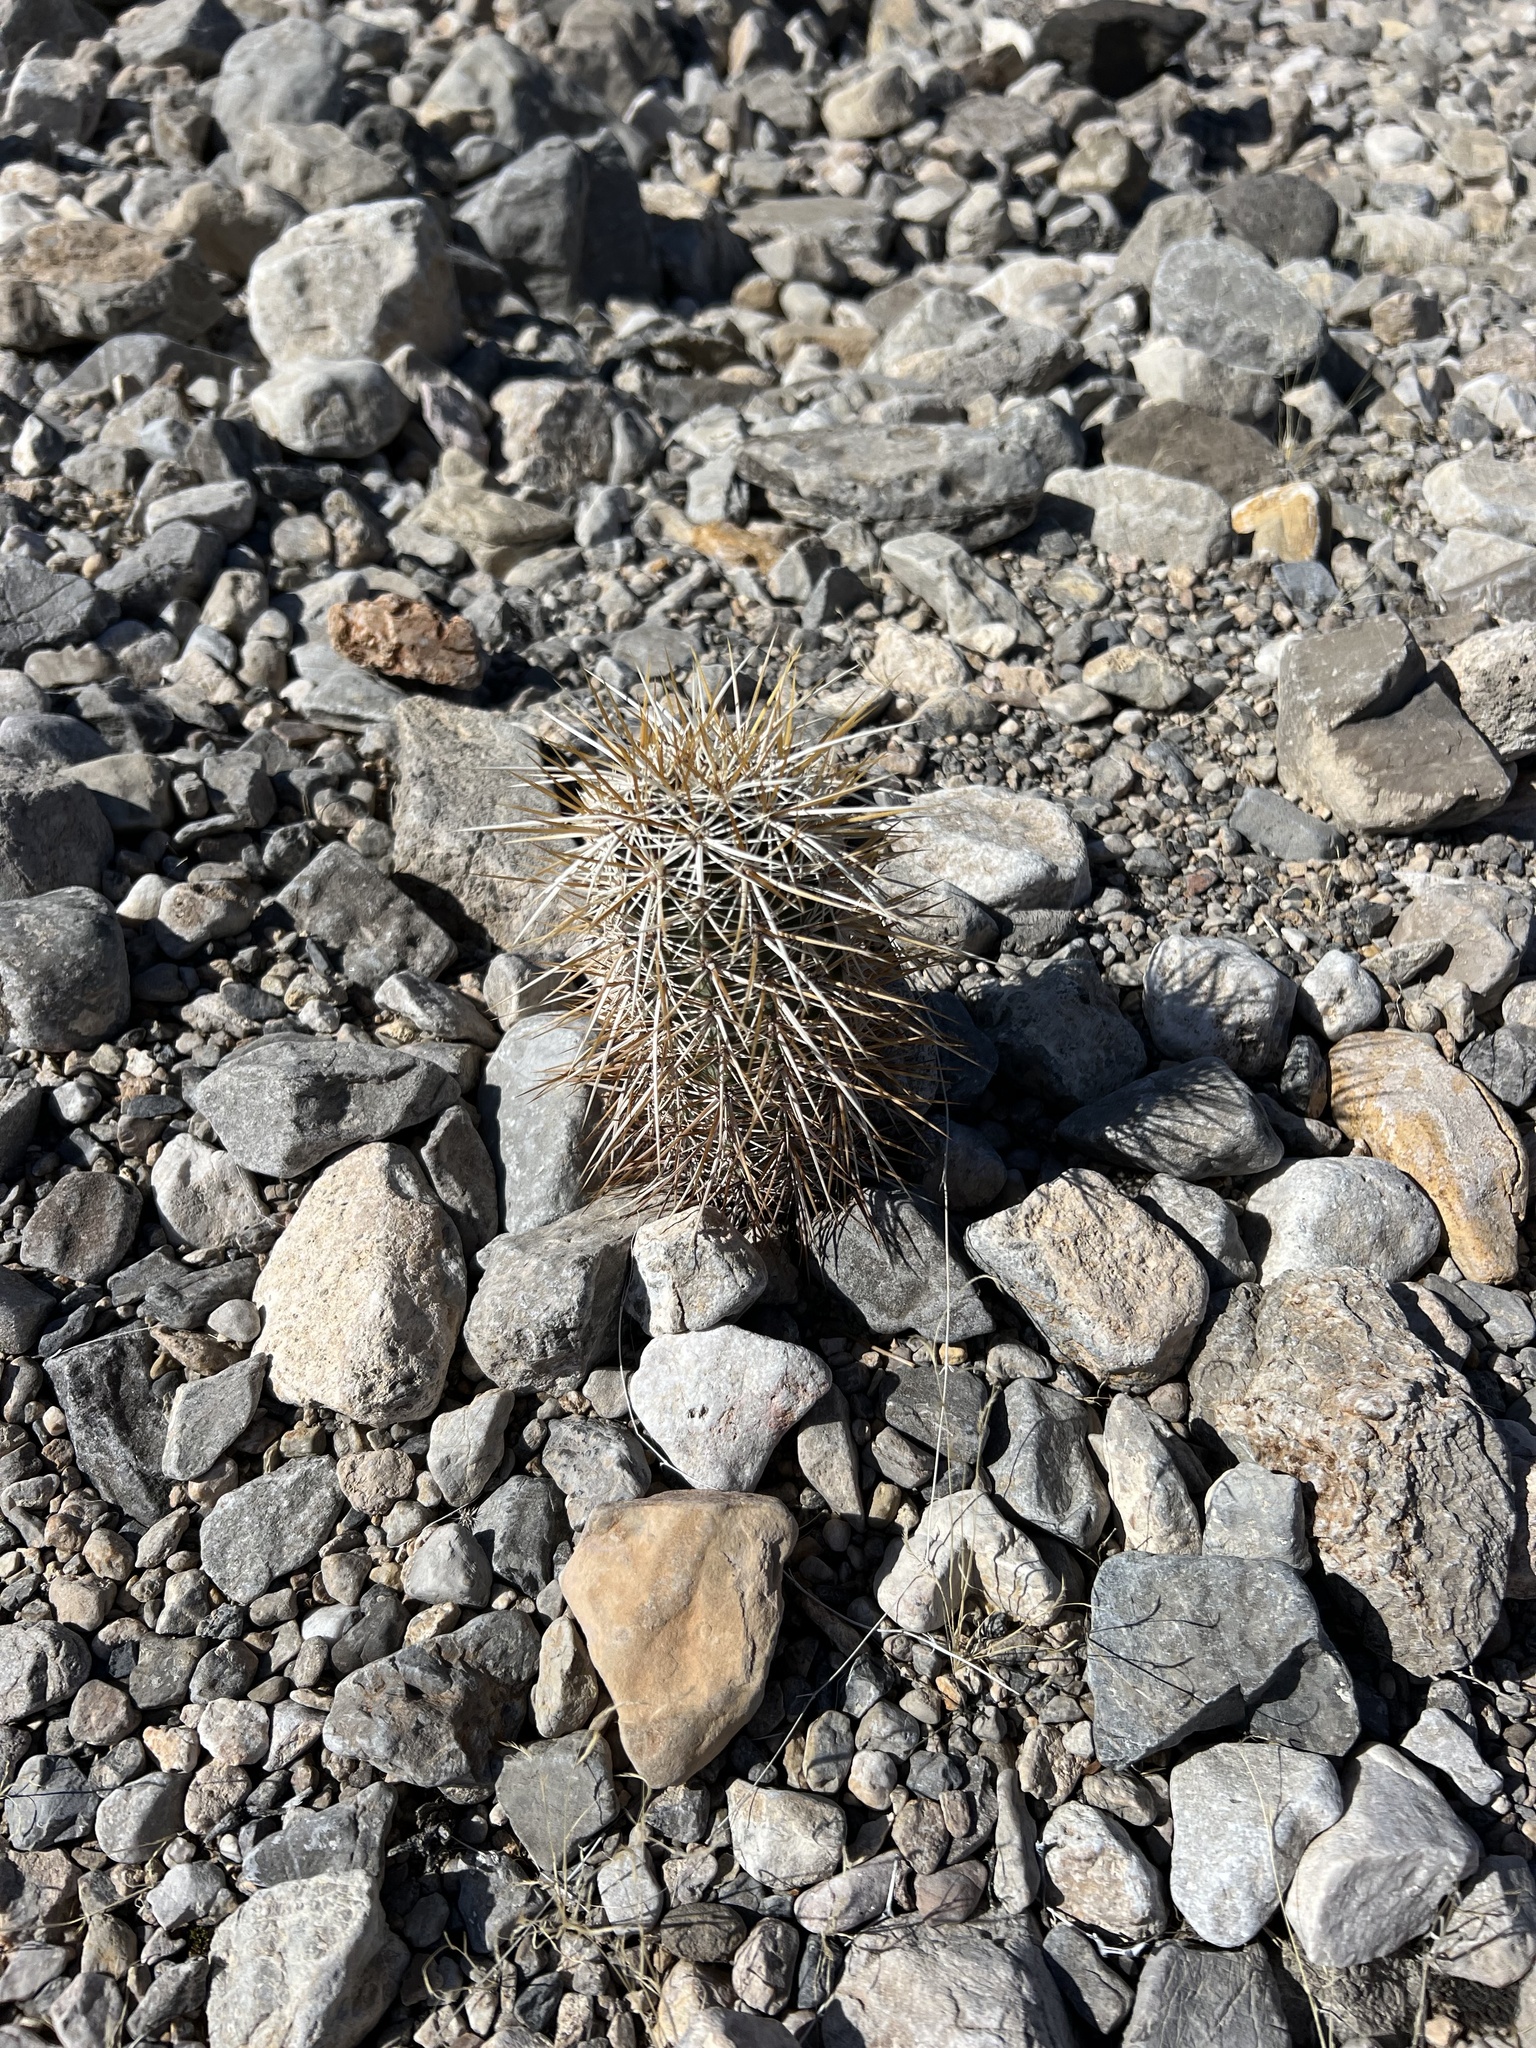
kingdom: Plantae
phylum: Tracheophyta
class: Magnoliopsida
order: Caryophyllales
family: Cactaceae
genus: Echinocereus
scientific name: Echinocereus engelmannii
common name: Engelmann's hedgehog cactus
